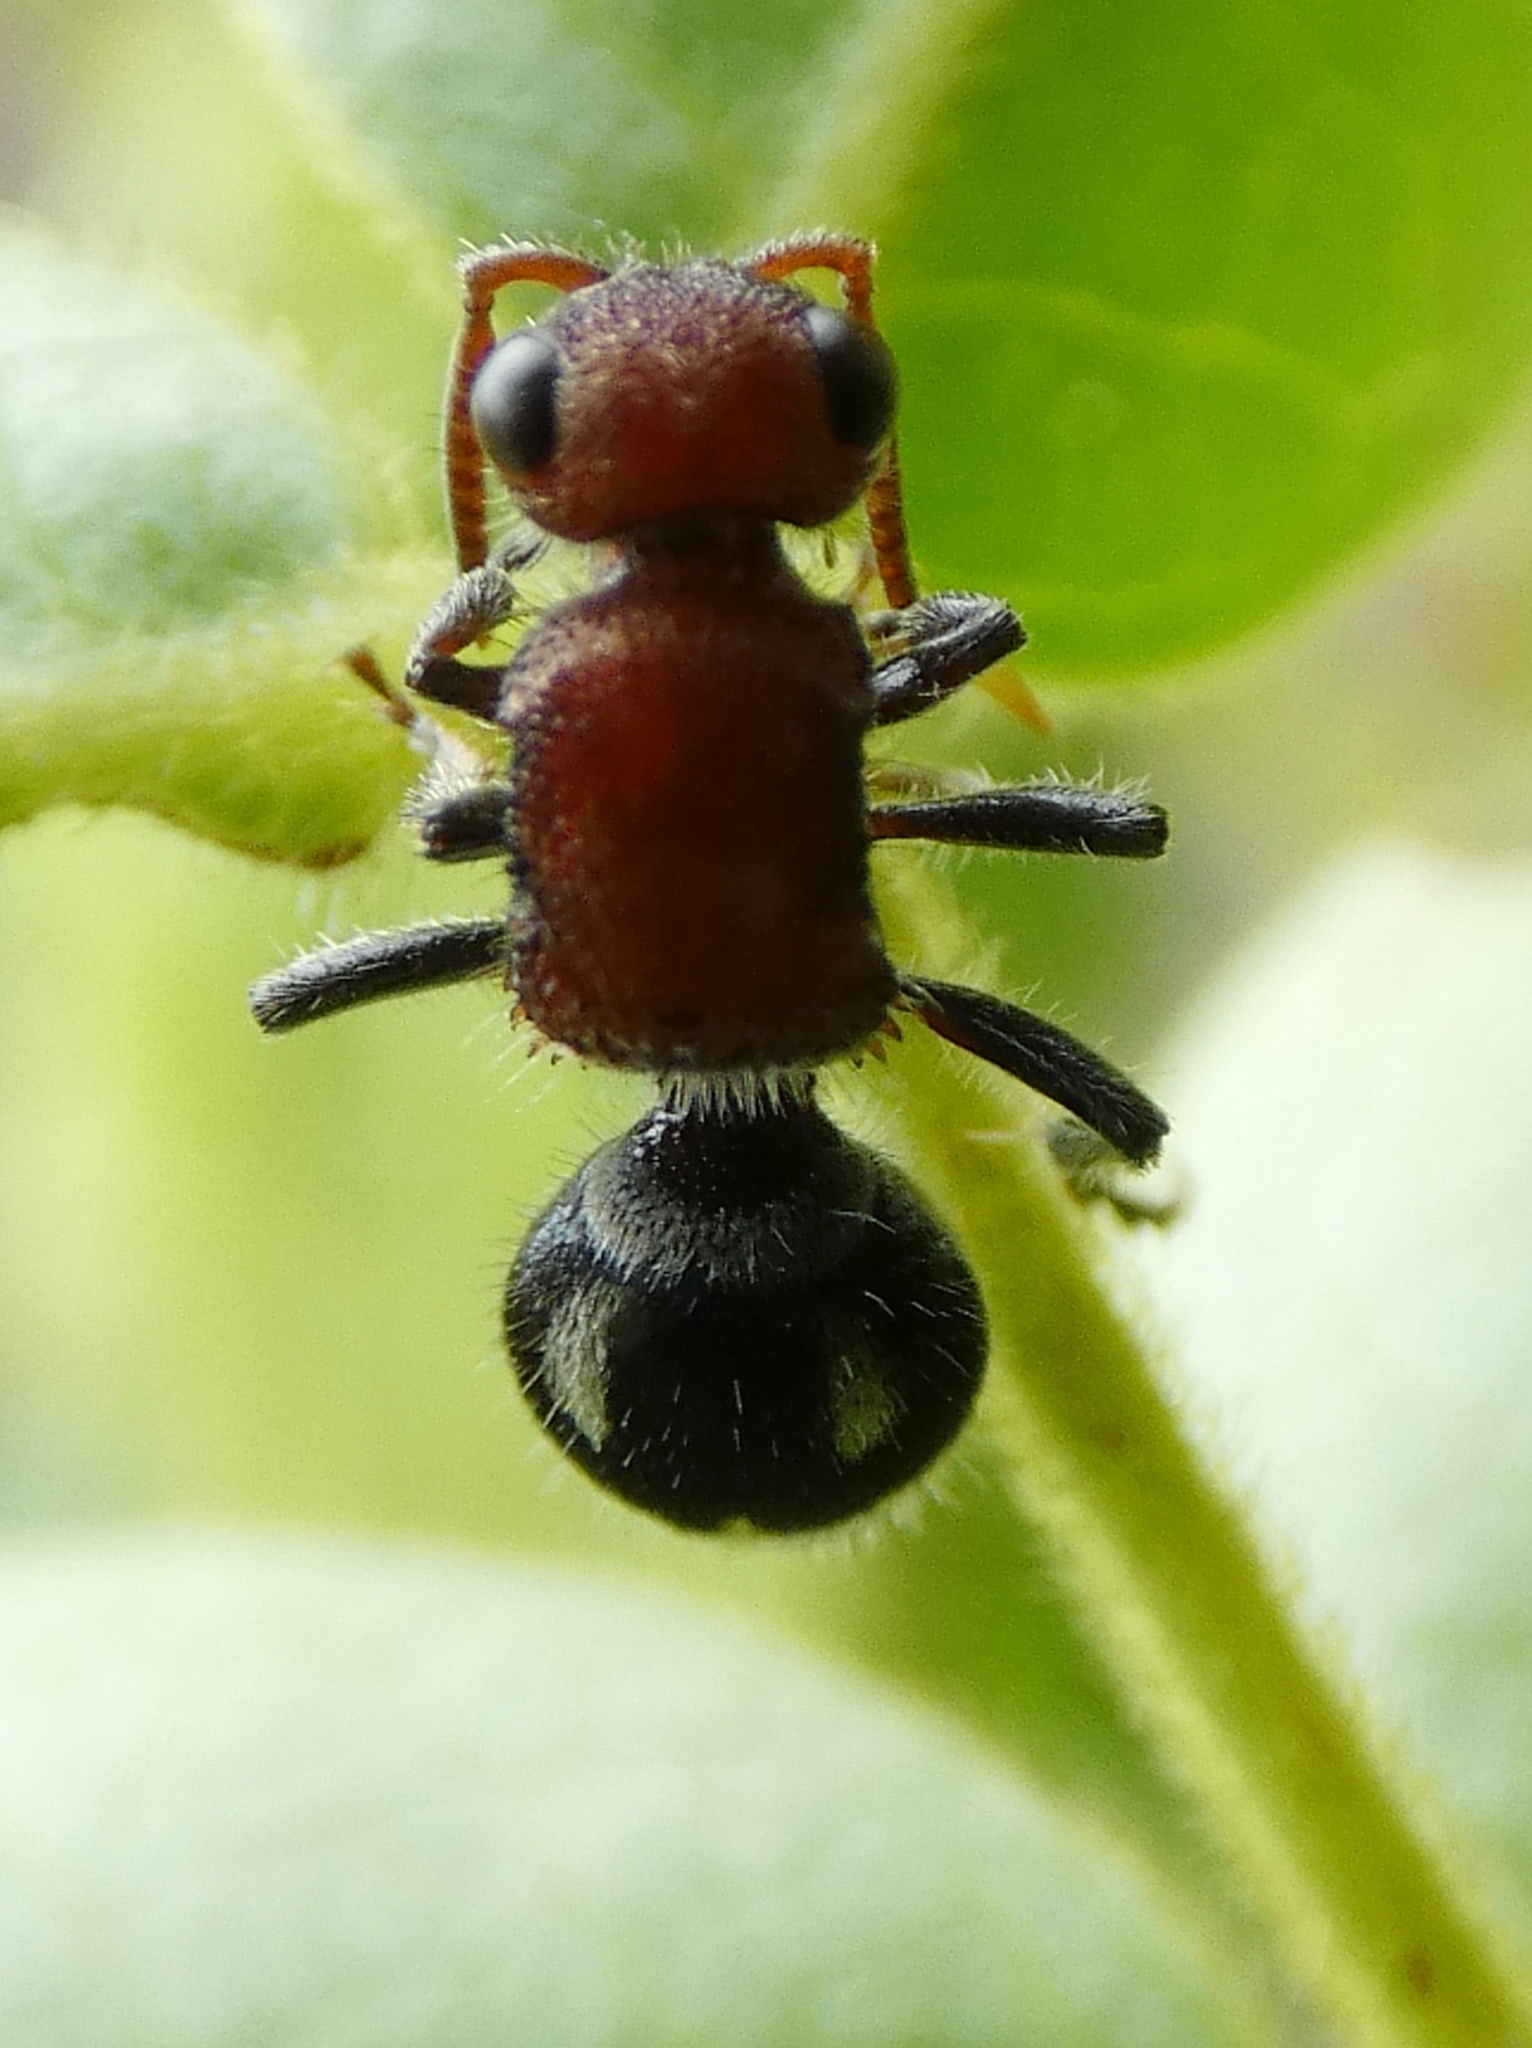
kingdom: Animalia
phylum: Arthropoda
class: Insecta
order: Hymenoptera
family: Mutillidae
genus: Timulla
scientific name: Timulla
